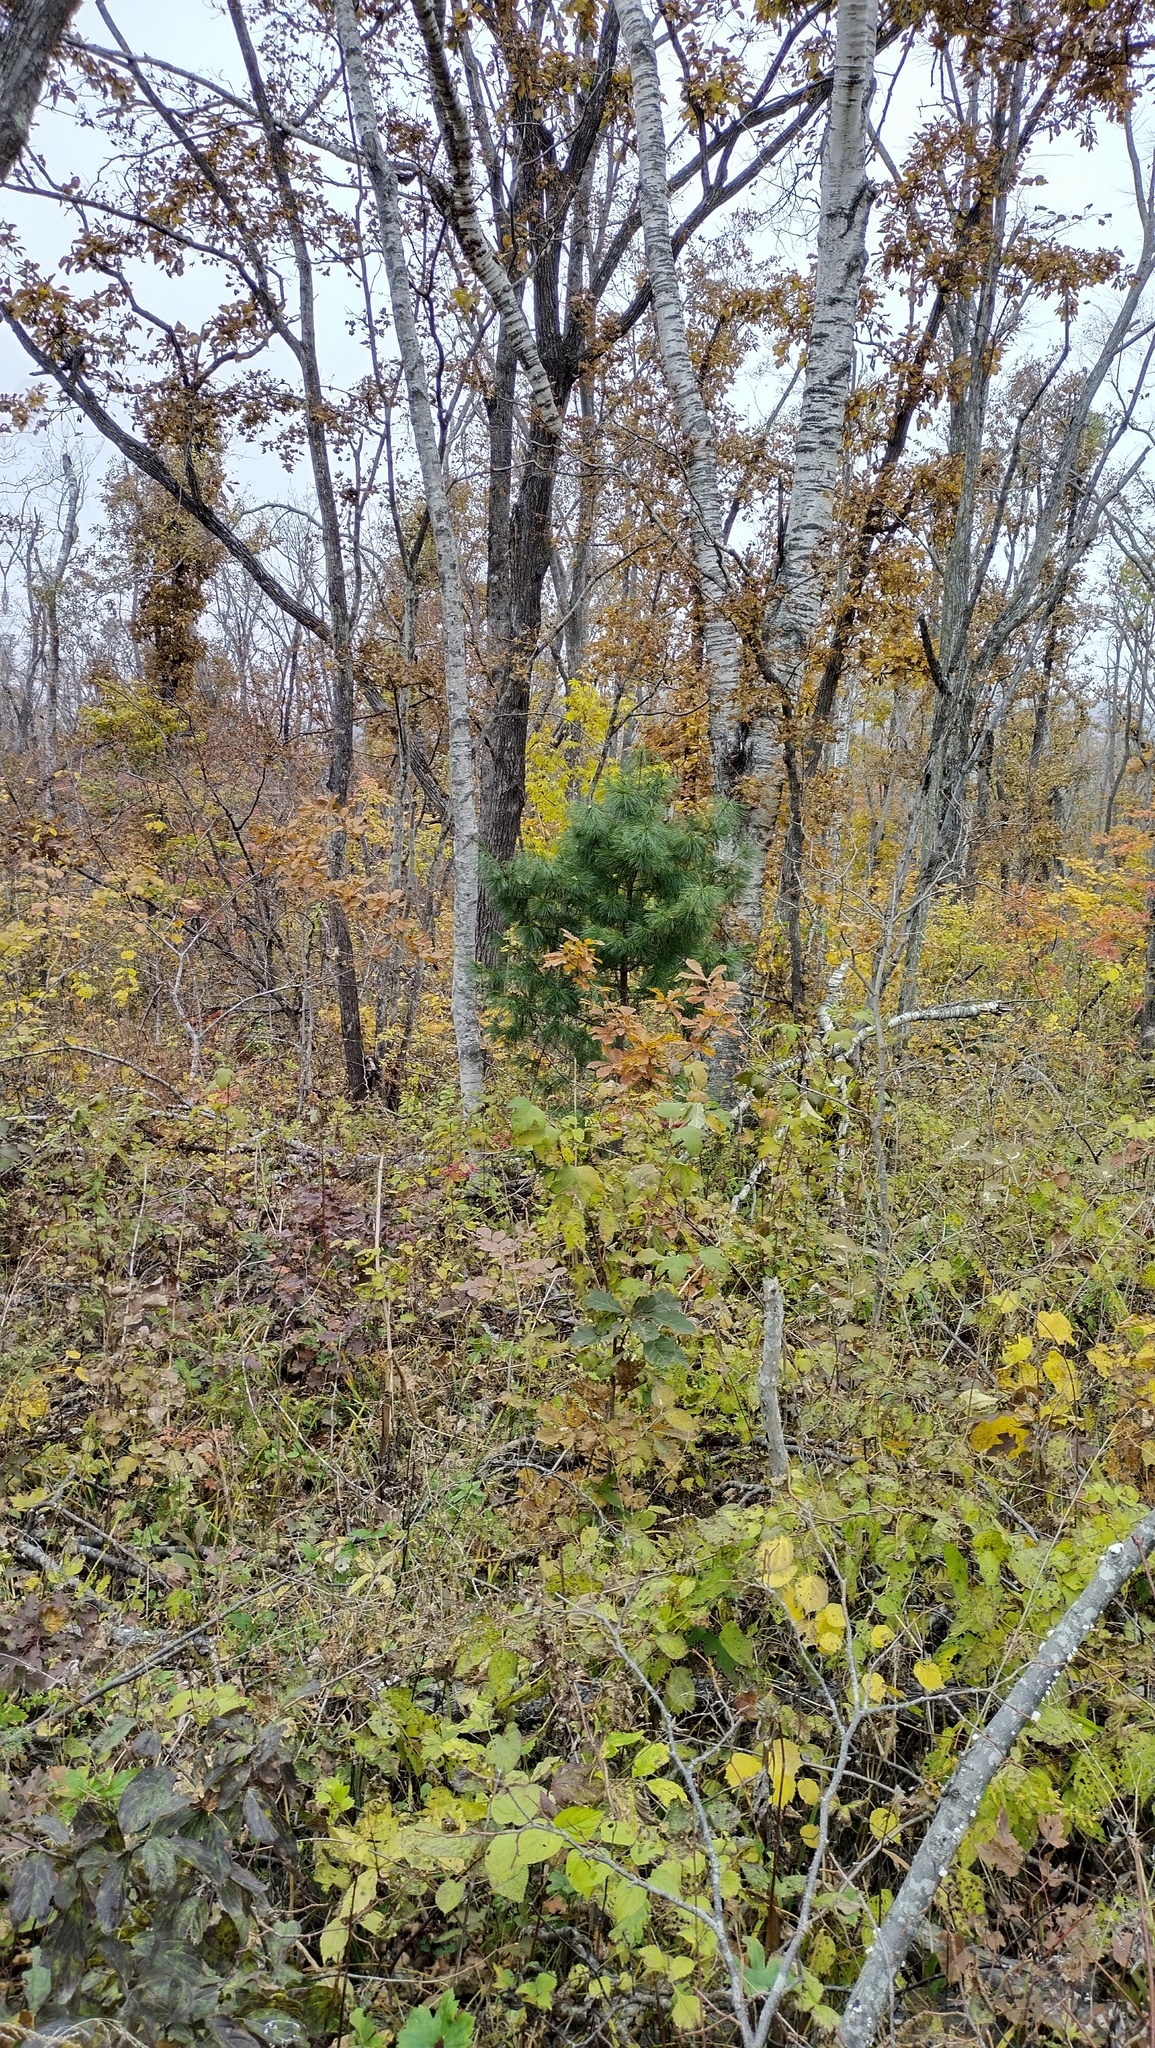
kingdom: Plantae
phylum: Tracheophyta
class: Pinopsida
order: Pinales
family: Pinaceae
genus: Pinus
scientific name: Pinus koraiensis
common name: Korean pine
